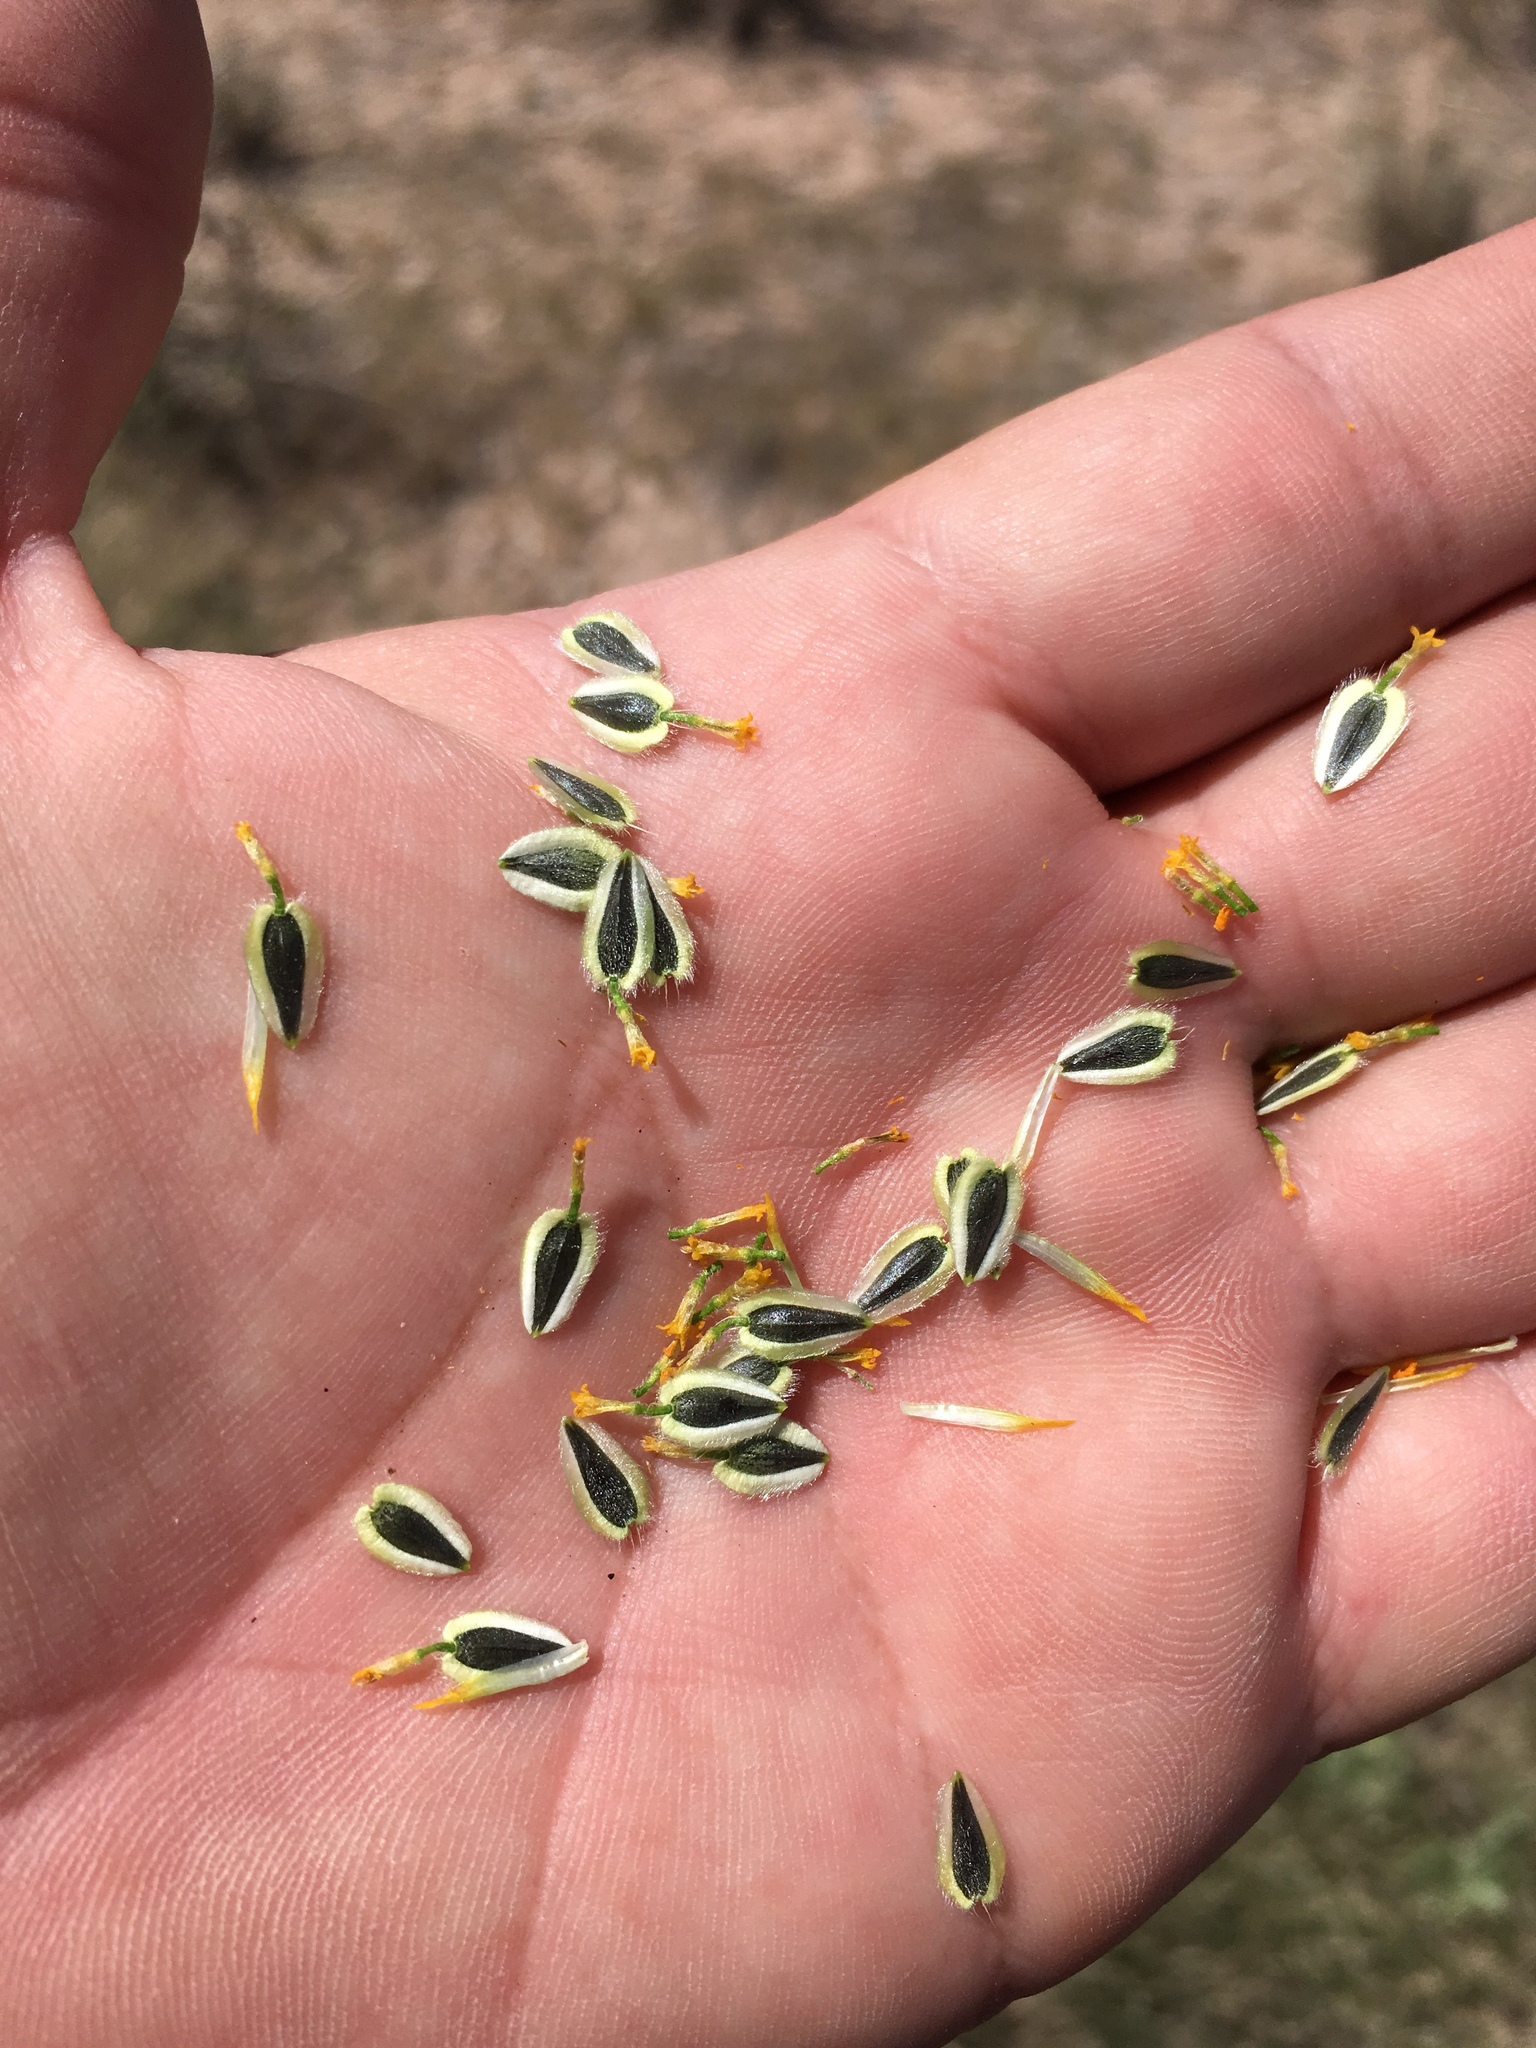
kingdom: Plantae
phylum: Tracheophyta
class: Magnoliopsida
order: Asterales
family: Asteraceae
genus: Verbesina
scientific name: Verbesina encelioides
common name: Golden crownbeard
